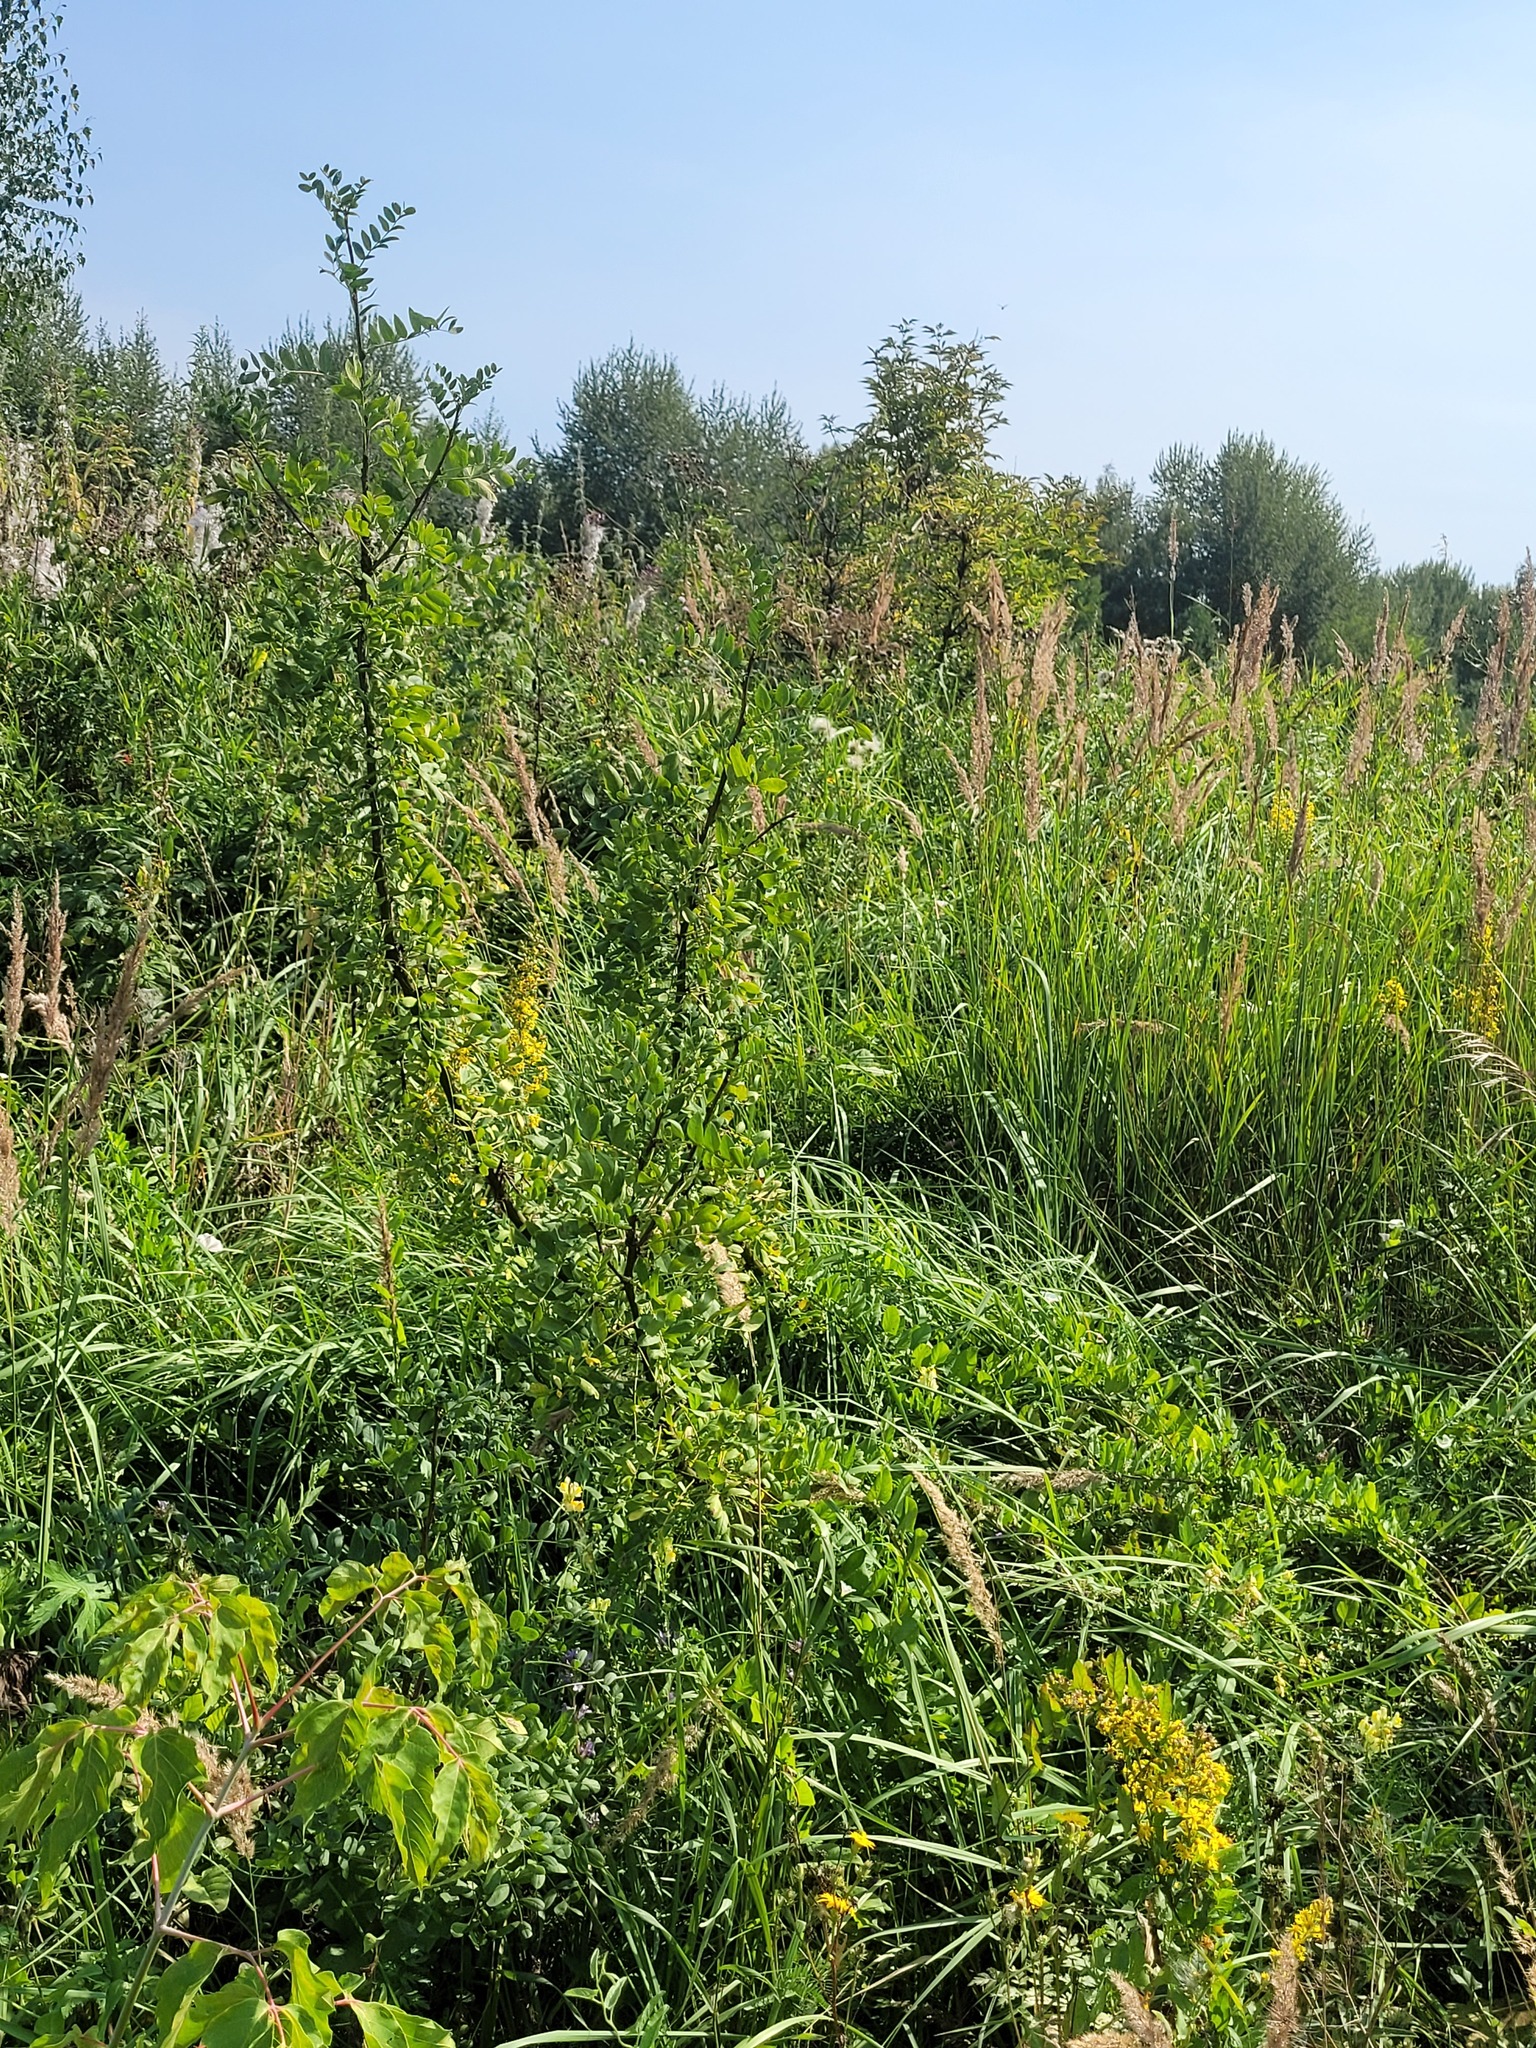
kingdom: Plantae
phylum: Tracheophyta
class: Magnoliopsida
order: Fabales
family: Fabaceae
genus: Caragana
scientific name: Caragana arborescens
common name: Siberian peashrub
